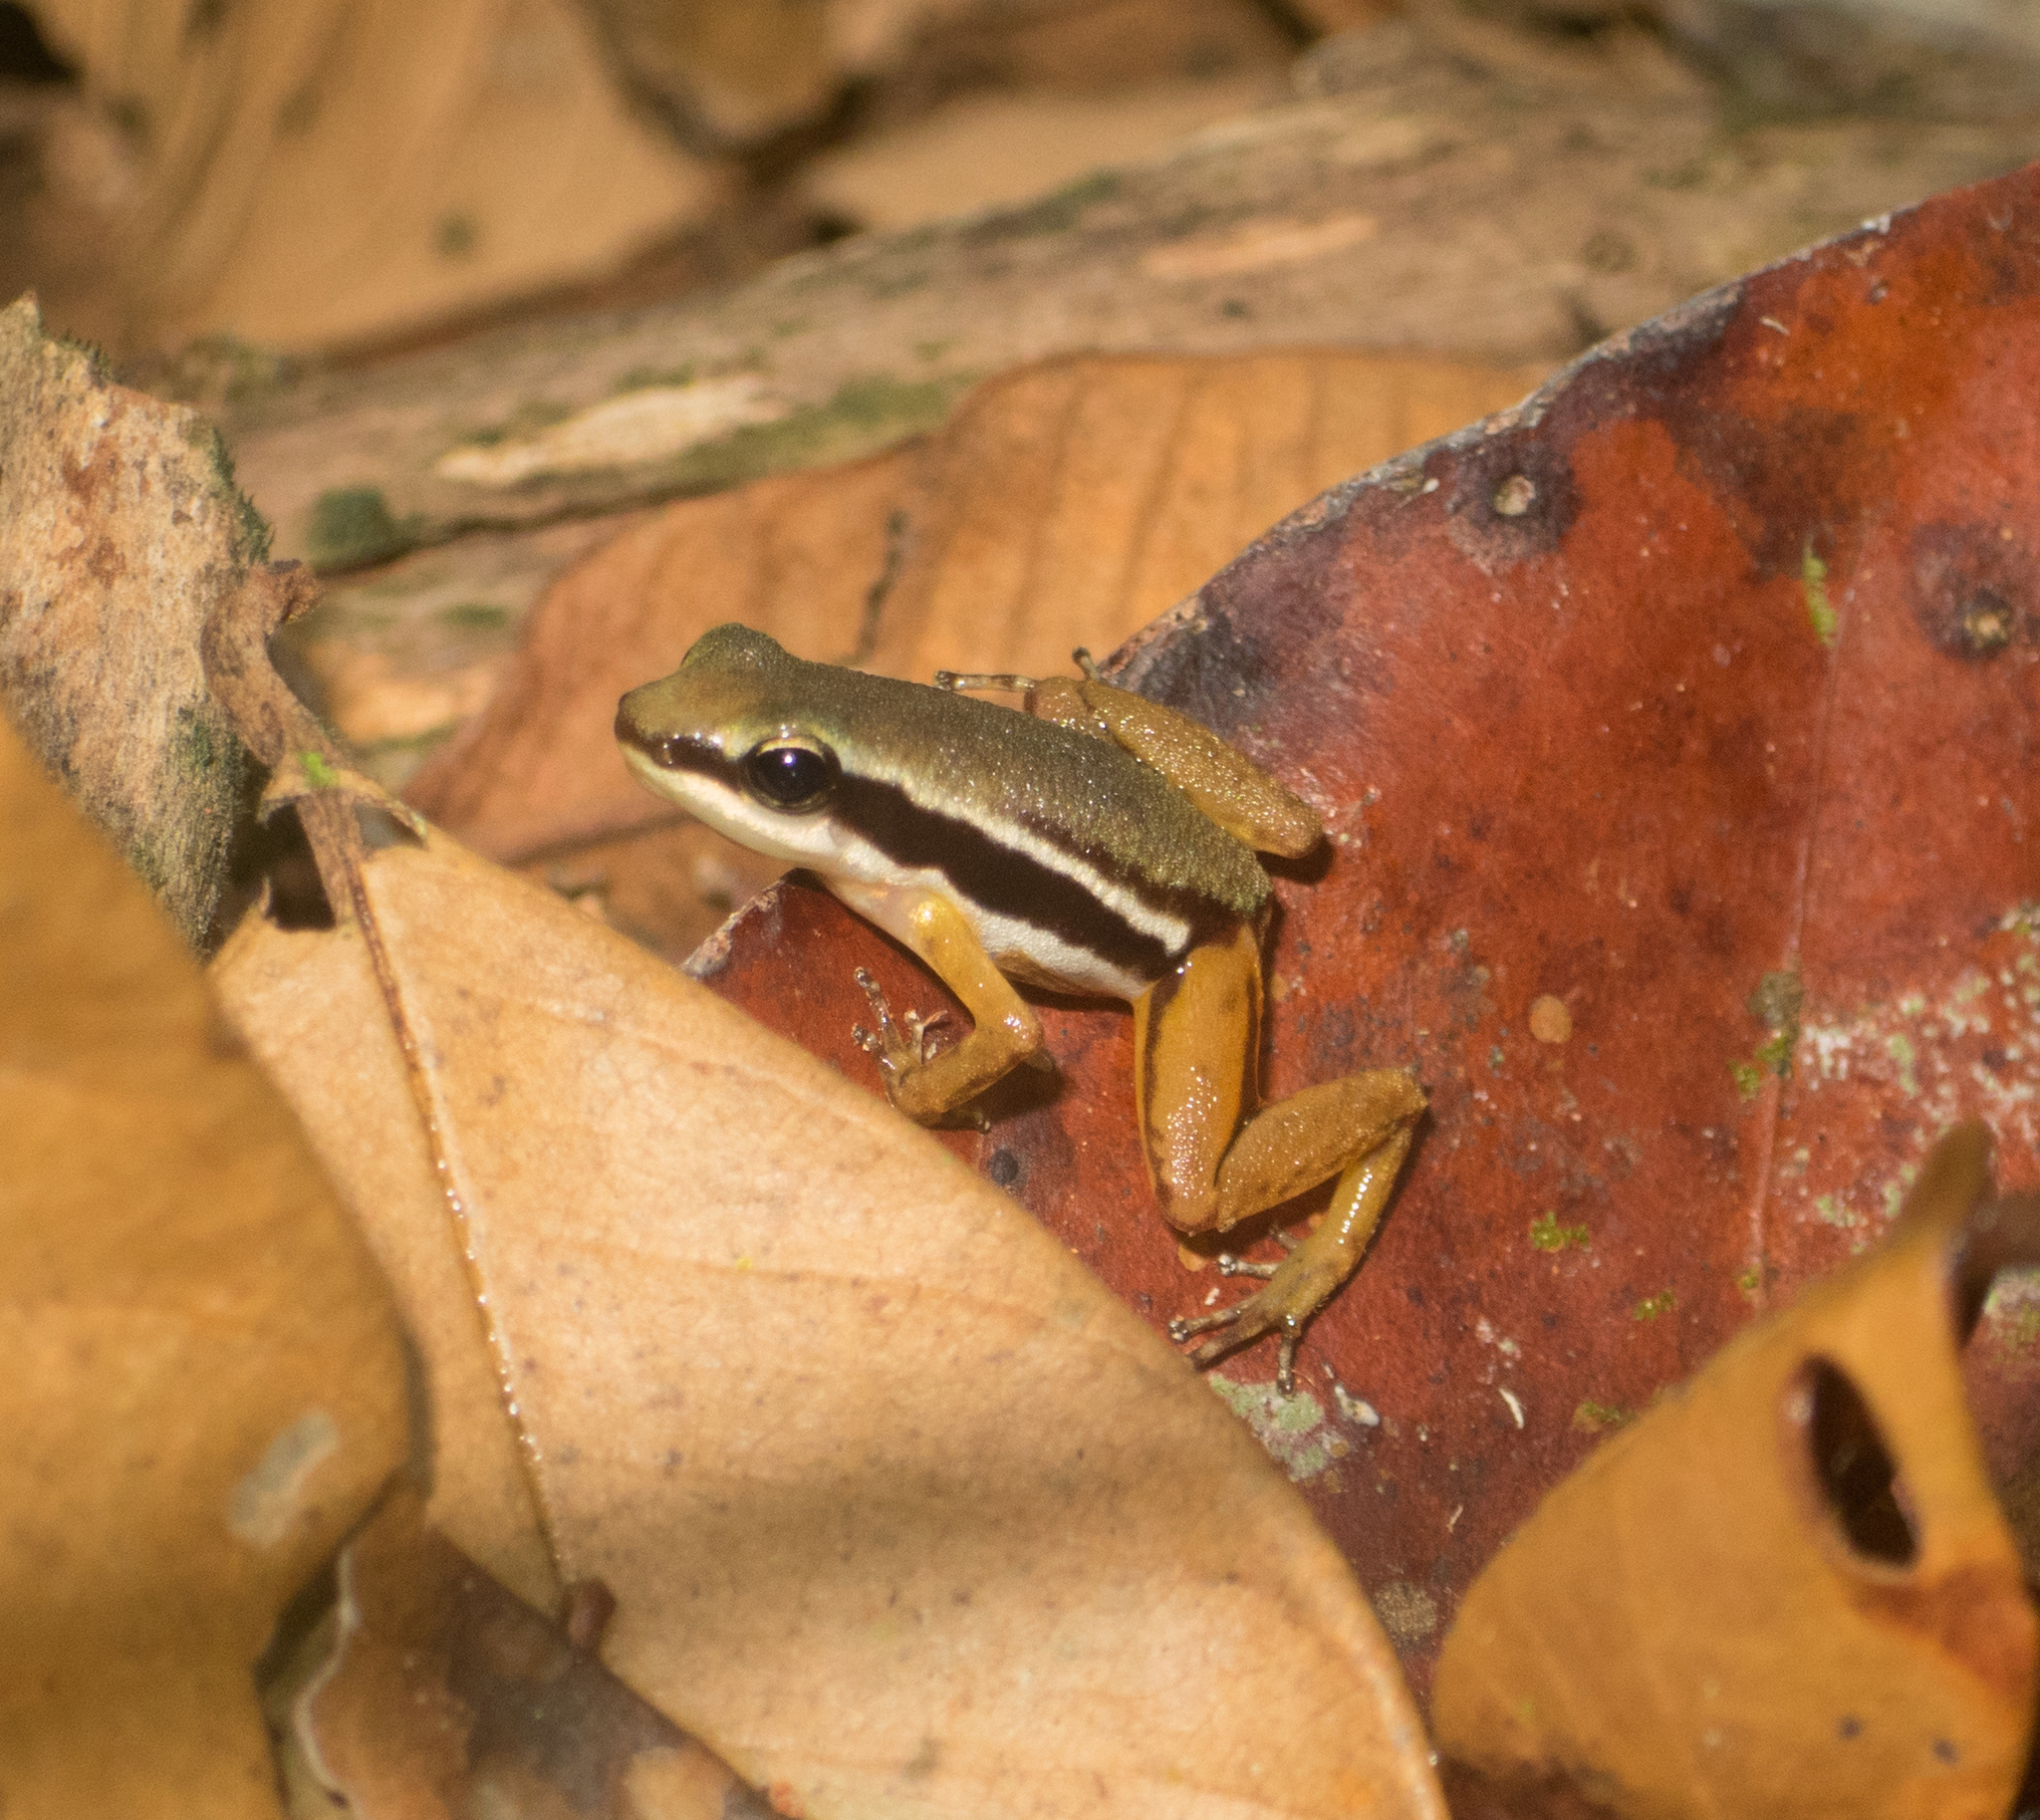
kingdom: Animalia
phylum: Chordata
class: Amphibia
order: Anura
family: Dendrobatidae
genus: Silverstoneia
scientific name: Silverstoneia flotator
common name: Rainforest rocket frog
